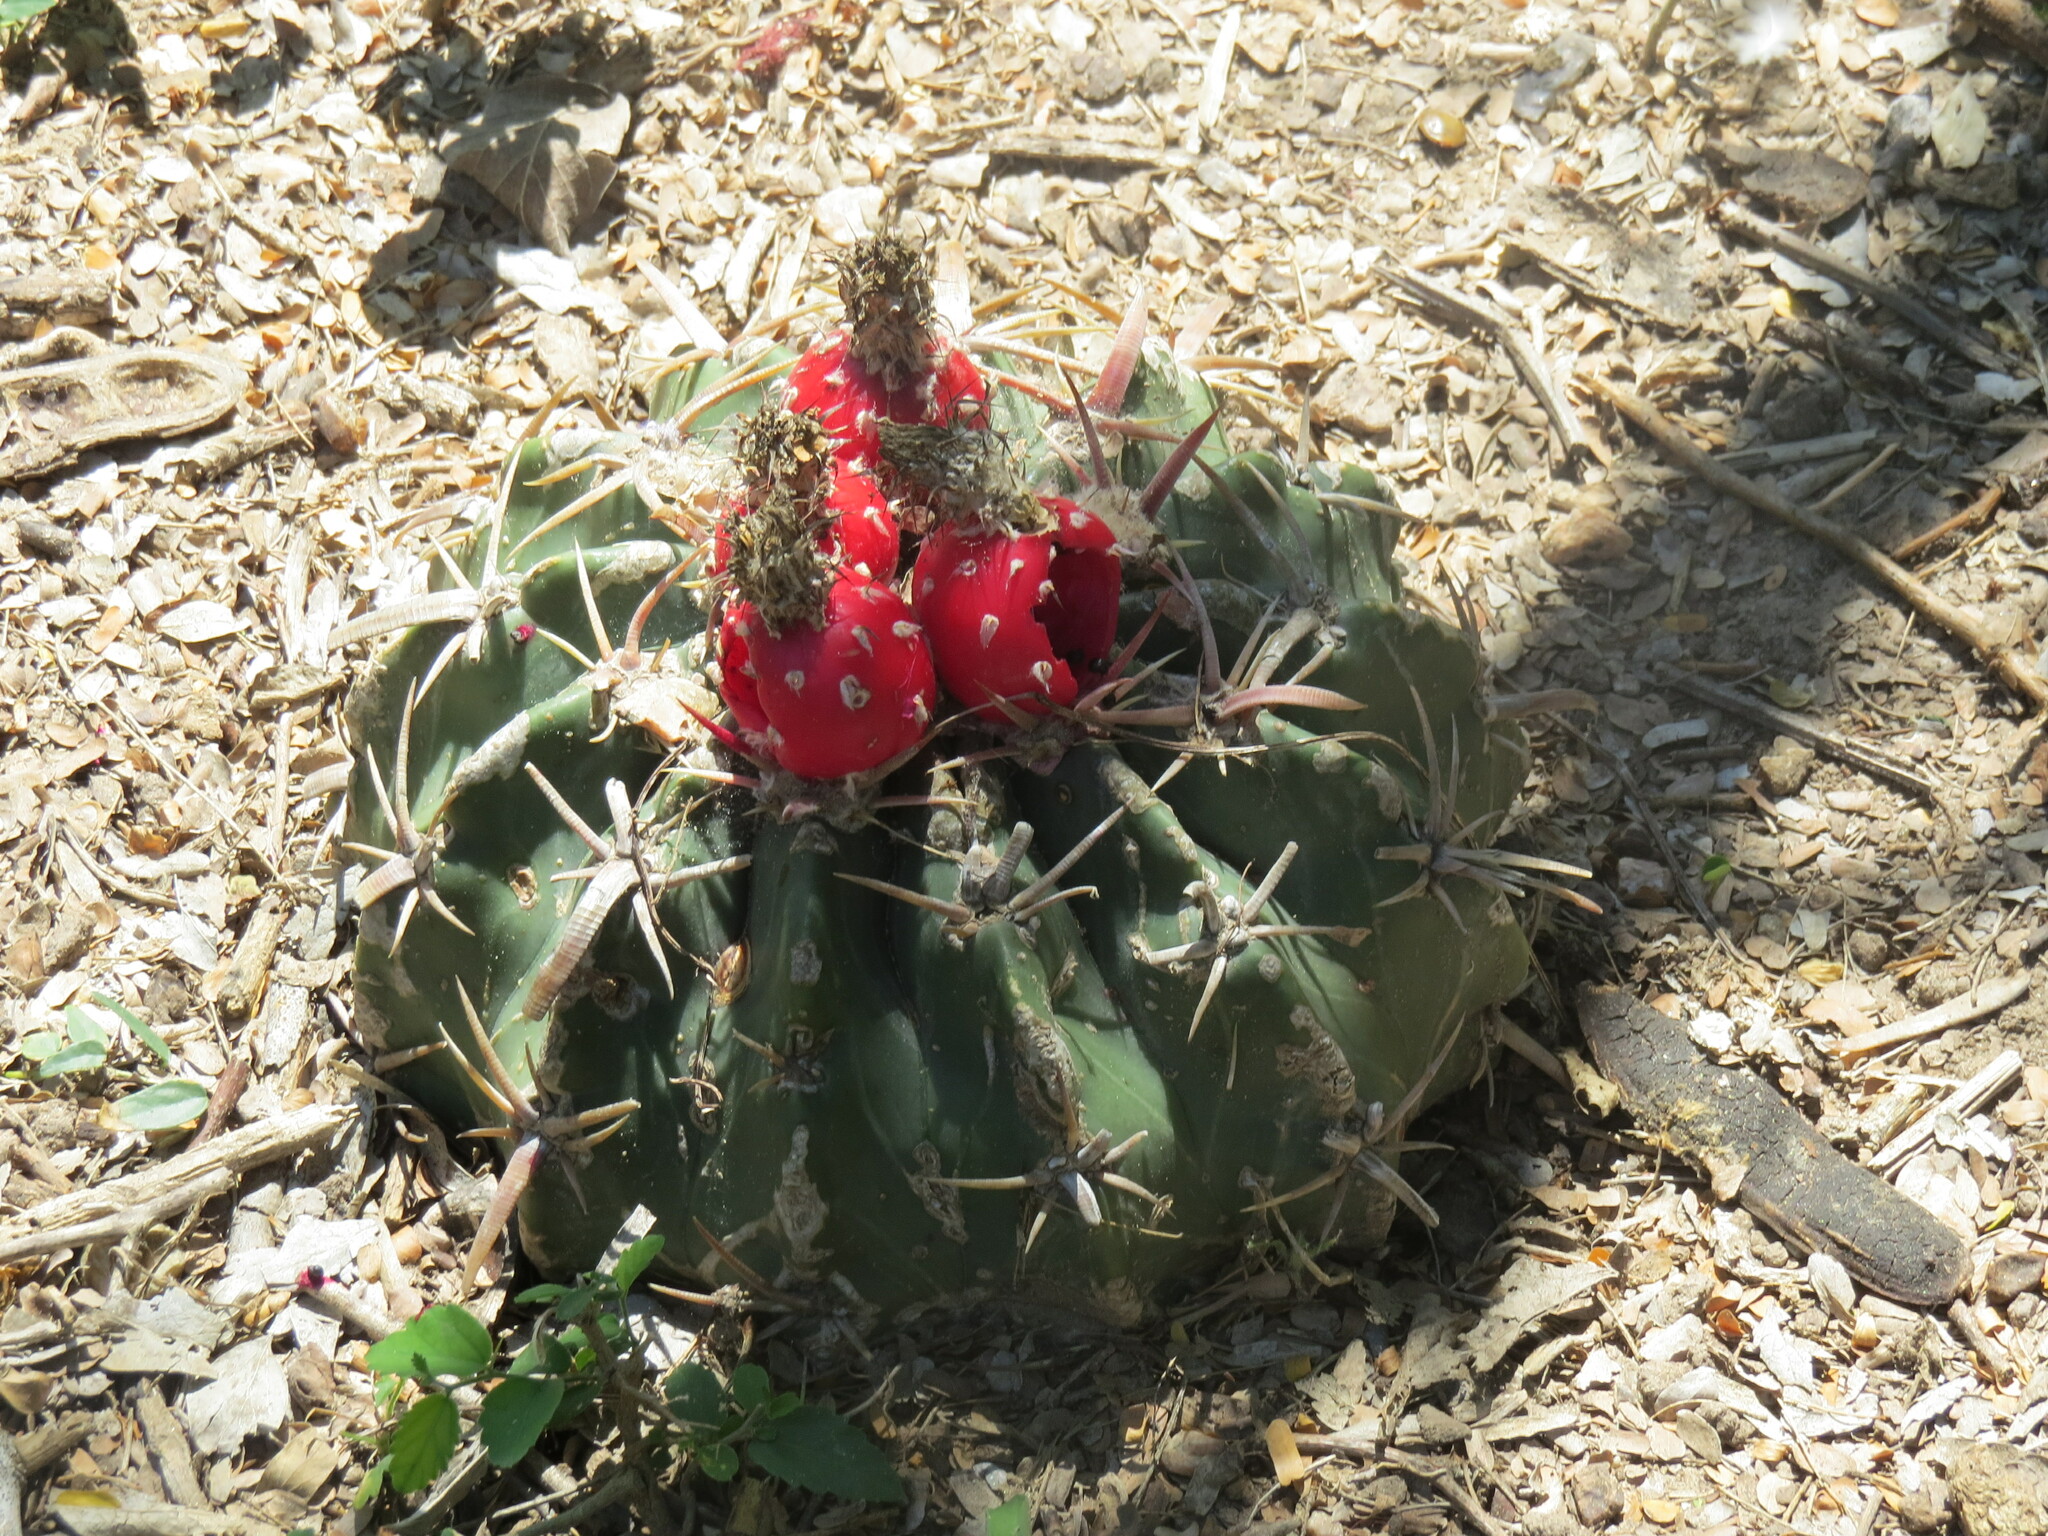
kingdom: Plantae
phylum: Tracheophyta
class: Magnoliopsida
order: Caryophyllales
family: Cactaceae
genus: Echinocactus
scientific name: Echinocactus texensis
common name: Devil's pincushion
